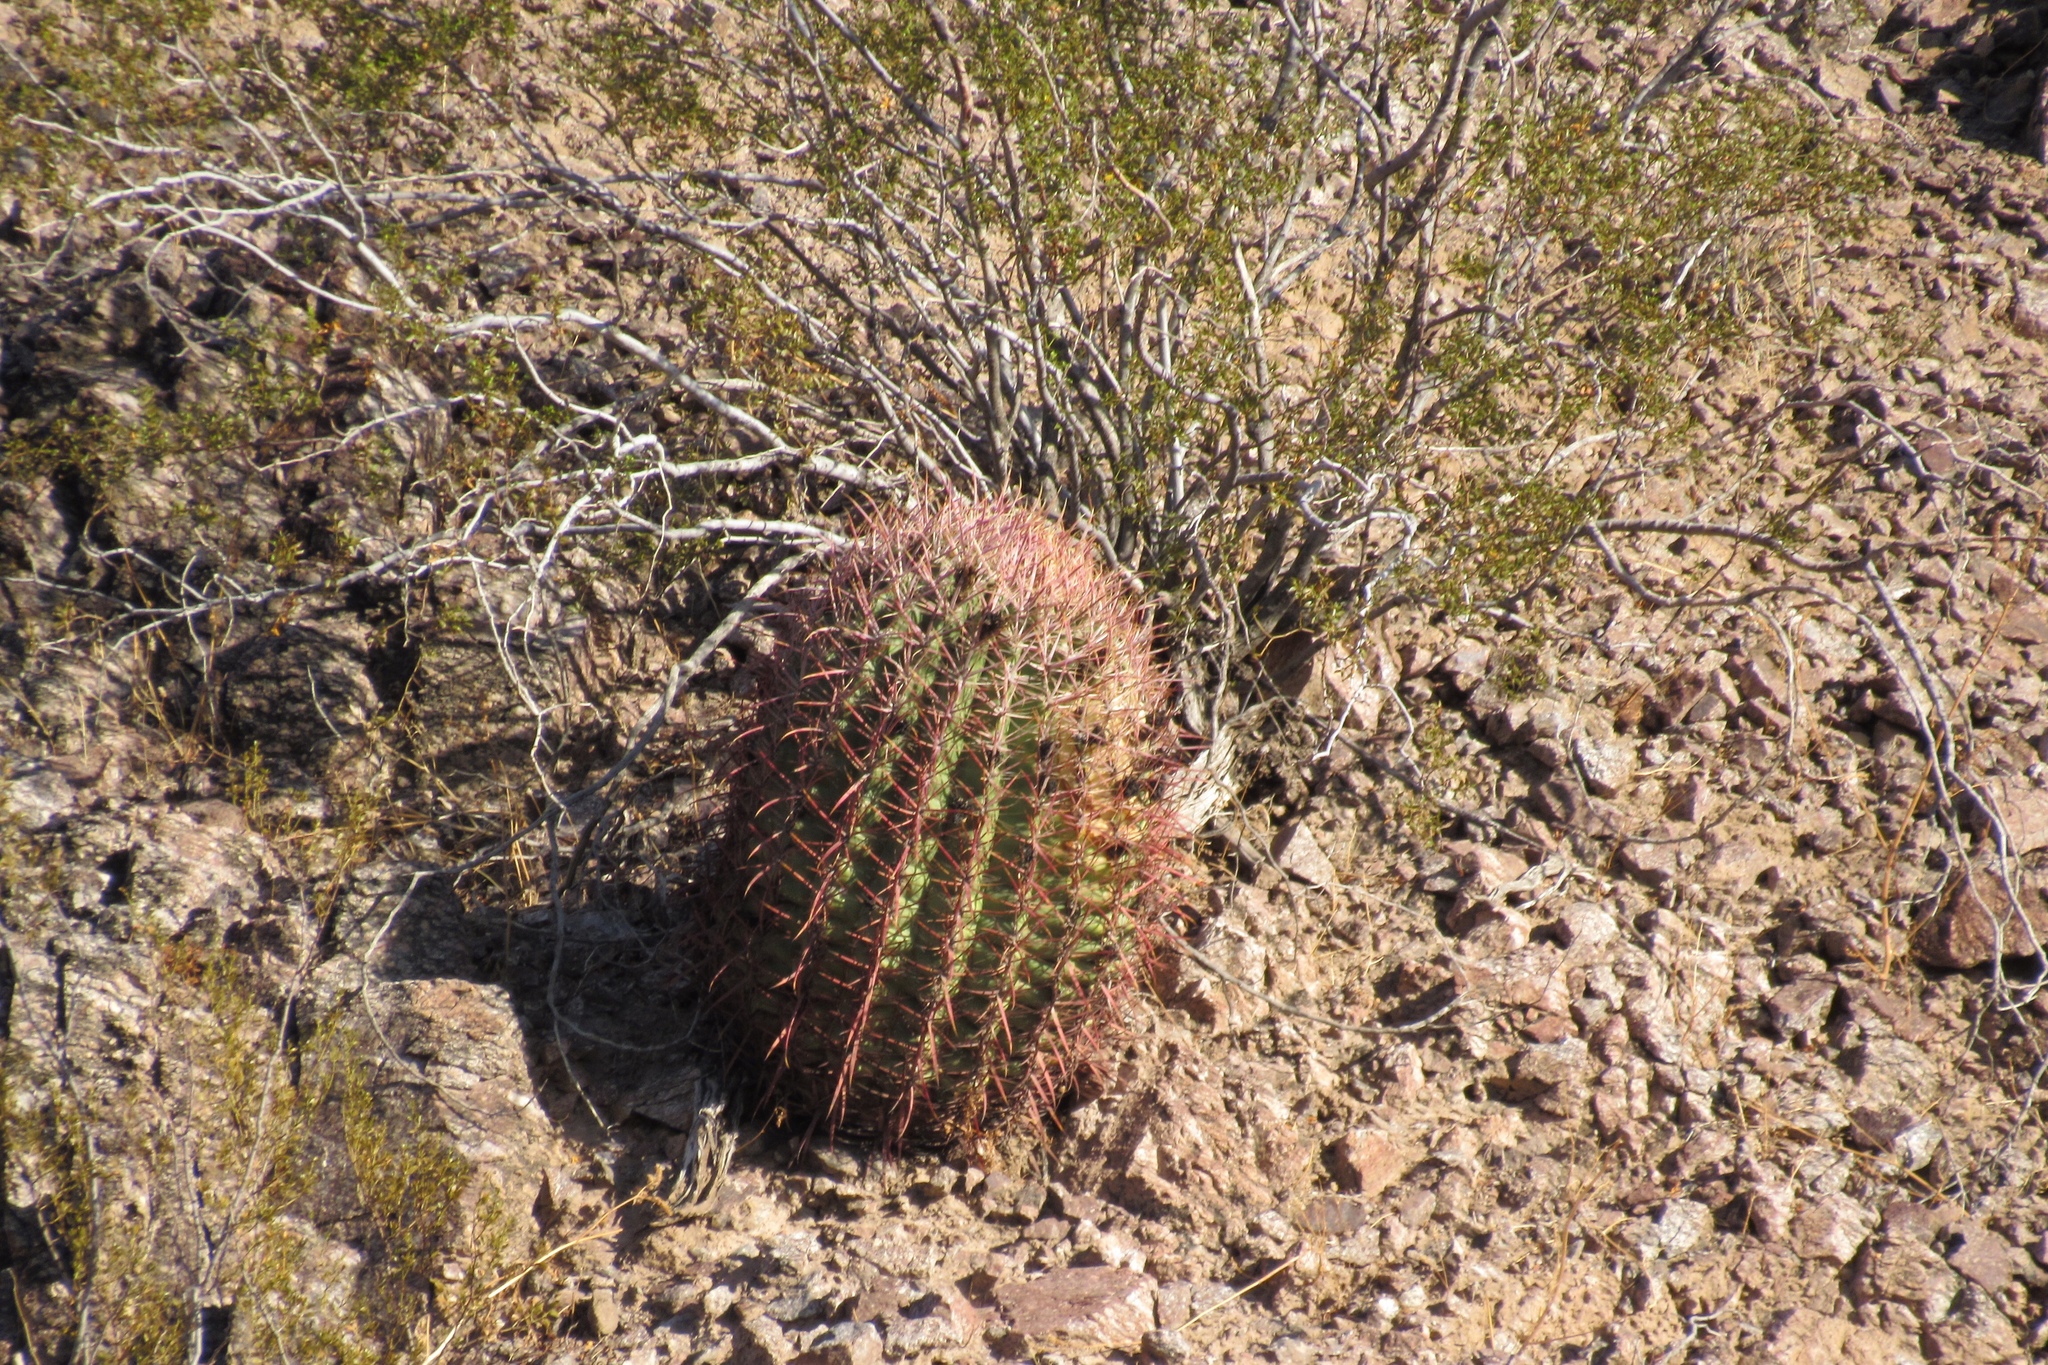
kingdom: Plantae
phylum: Tracheophyta
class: Magnoliopsida
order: Caryophyllales
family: Cactaceae
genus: Ferocactus
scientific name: Ferocactus cylindraceus
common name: California barrel cactus
